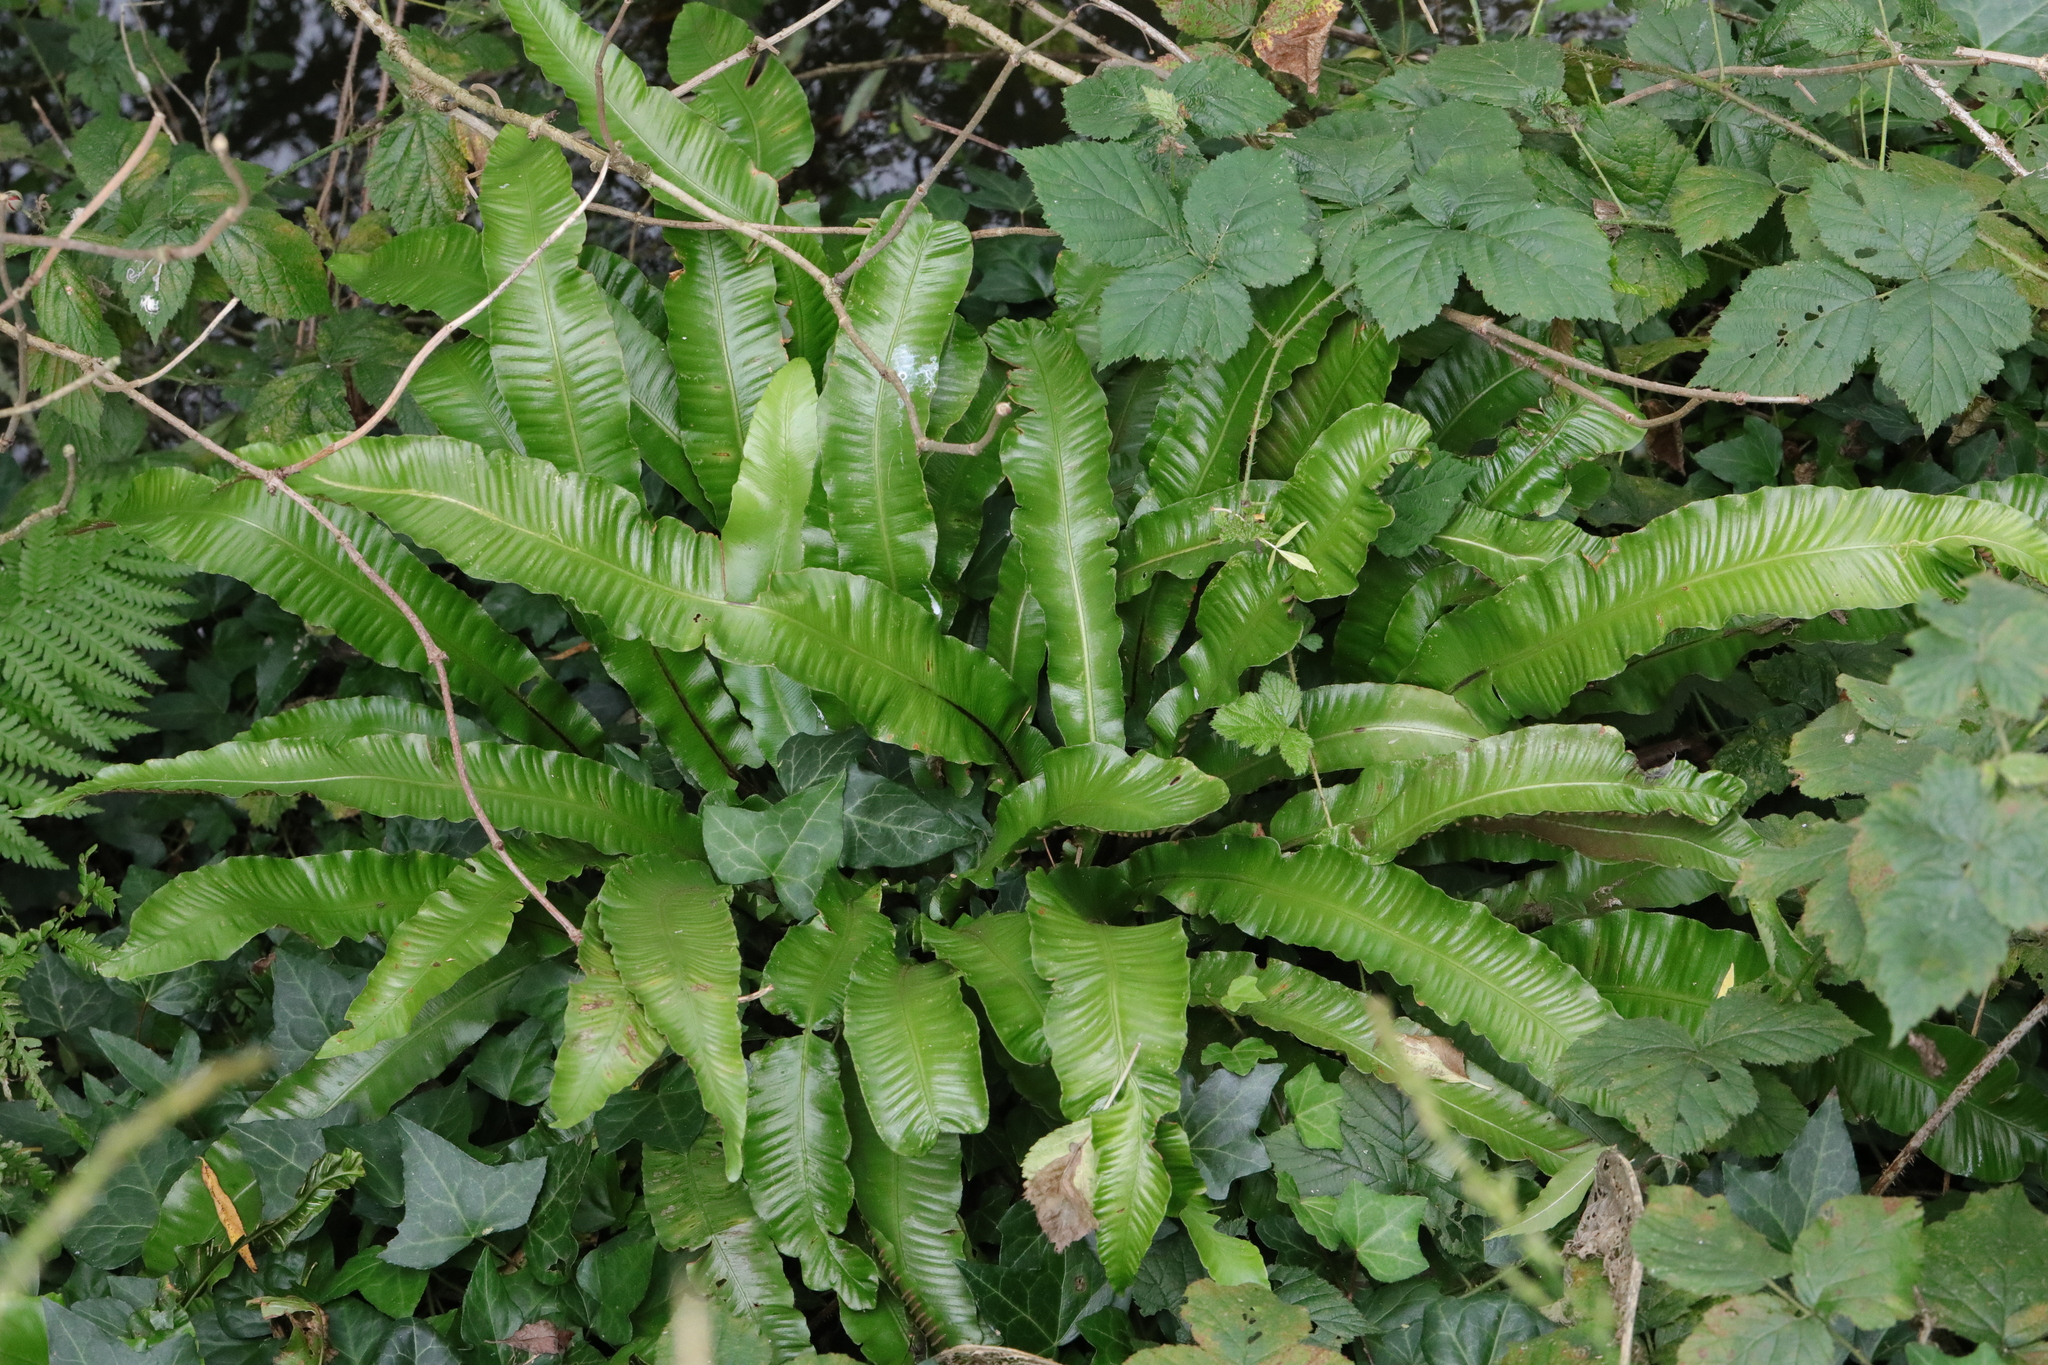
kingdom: Plantae
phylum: Tracheophyta
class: Polypodiopsida
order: Polypodiales
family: Aspleniaceae
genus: Asplenium
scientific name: Asplenium scolopendrium
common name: Hart's-tongue fern
